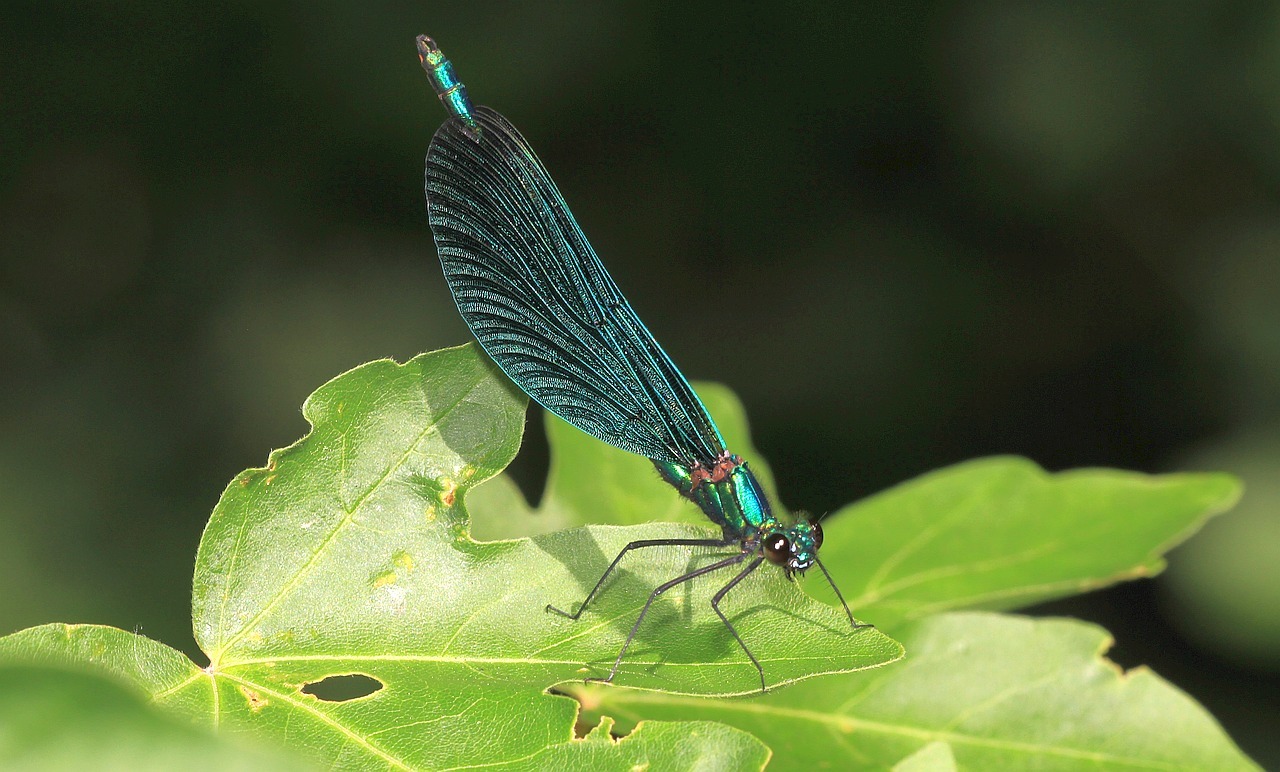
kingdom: Animalia
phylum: Arthropoda
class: Insecta
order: Odonata
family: Calopterygidae
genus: Calopteryx
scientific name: Calopteryx virgo
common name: Beautiful demoiselle
